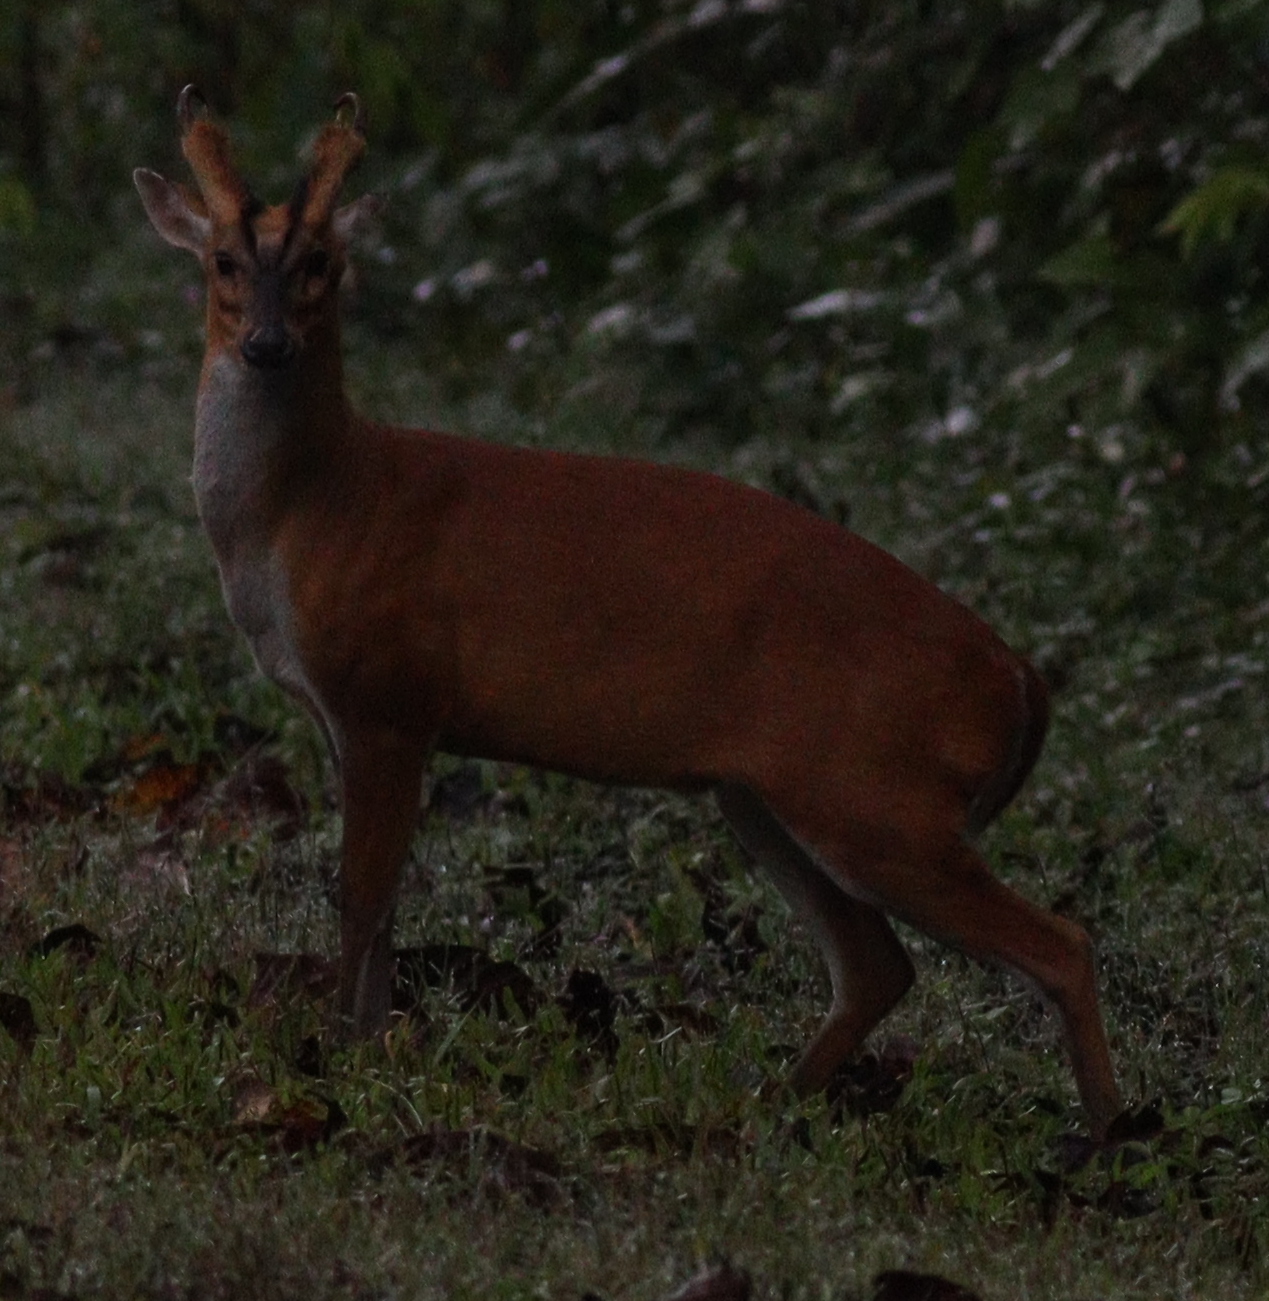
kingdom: Animalia
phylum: Chordata
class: Mammalia
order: Artiodactyla
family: Cervidae
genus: Muntiacus
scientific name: Muntiacus muntjak
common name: Indian muntjac
